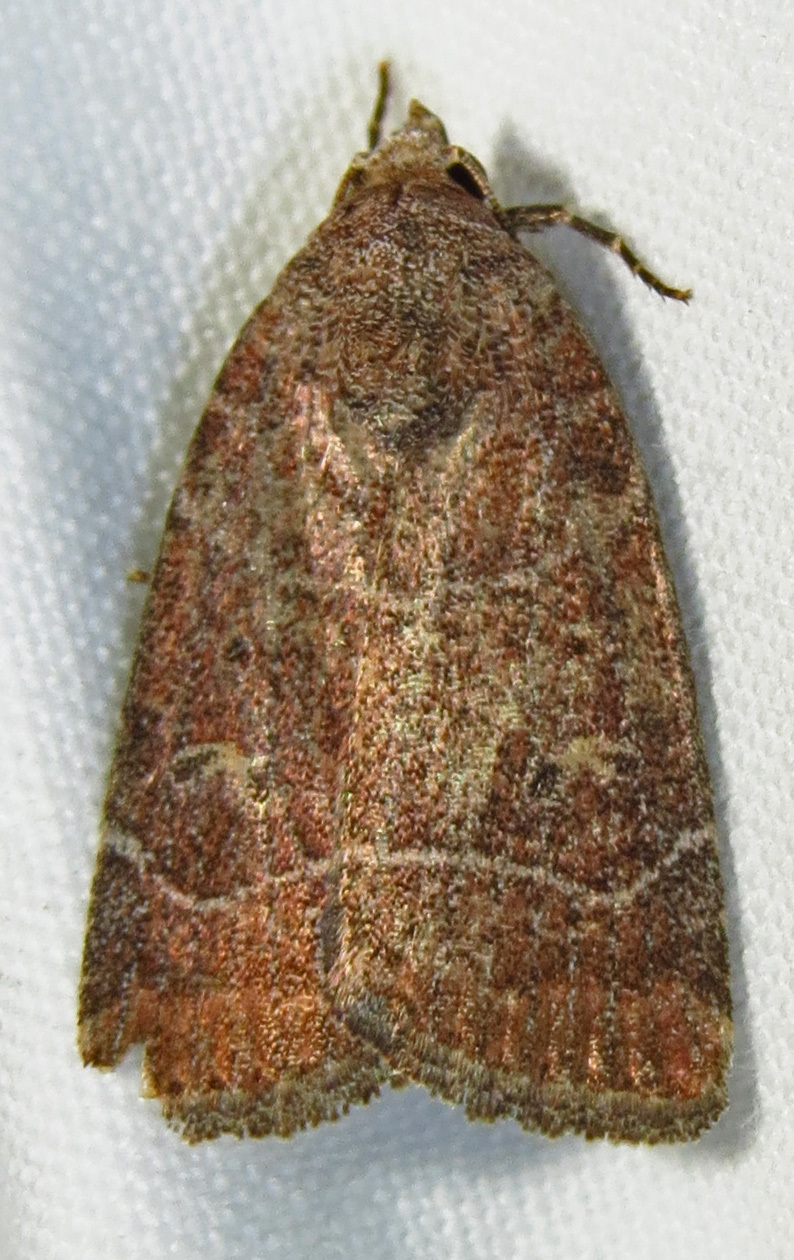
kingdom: Animalia
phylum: Arthropoda
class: Insecta
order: Lepidoptera
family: Noctuidae
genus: Elaphria
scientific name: Elaphria grata
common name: Grateful midget moth
